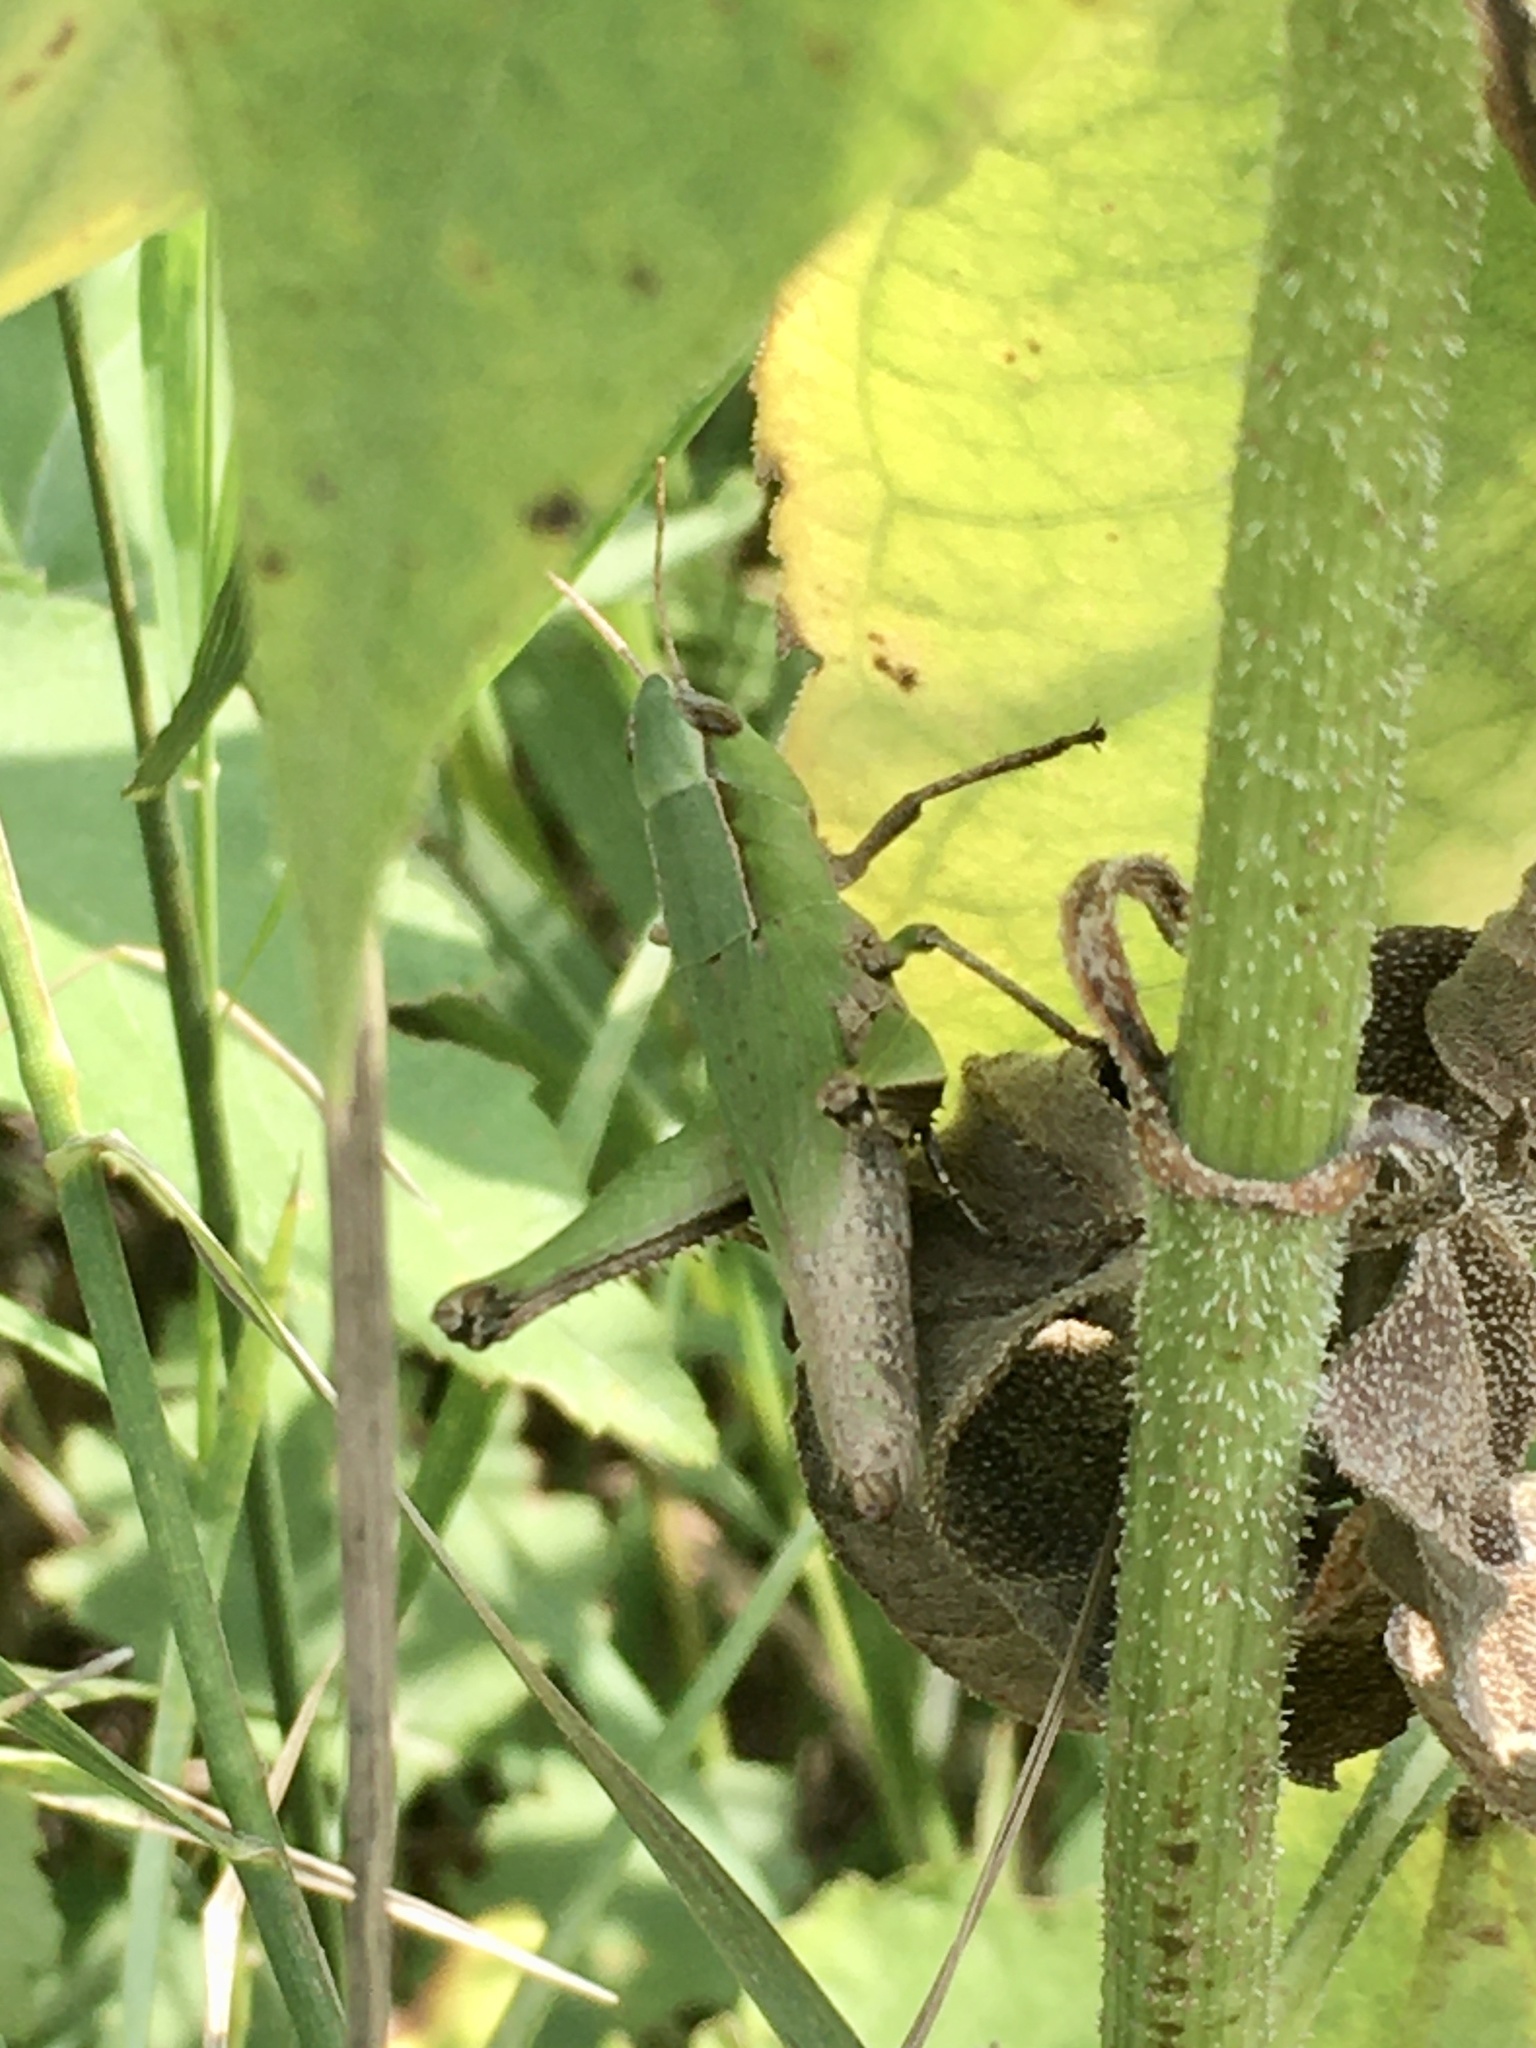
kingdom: Animalia
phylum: Arthropoda
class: Insecta
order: Orthoptera
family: Acrididae
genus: Dichromorpha
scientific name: Dichromorpha viridis
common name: Short-winged green grasshopper
